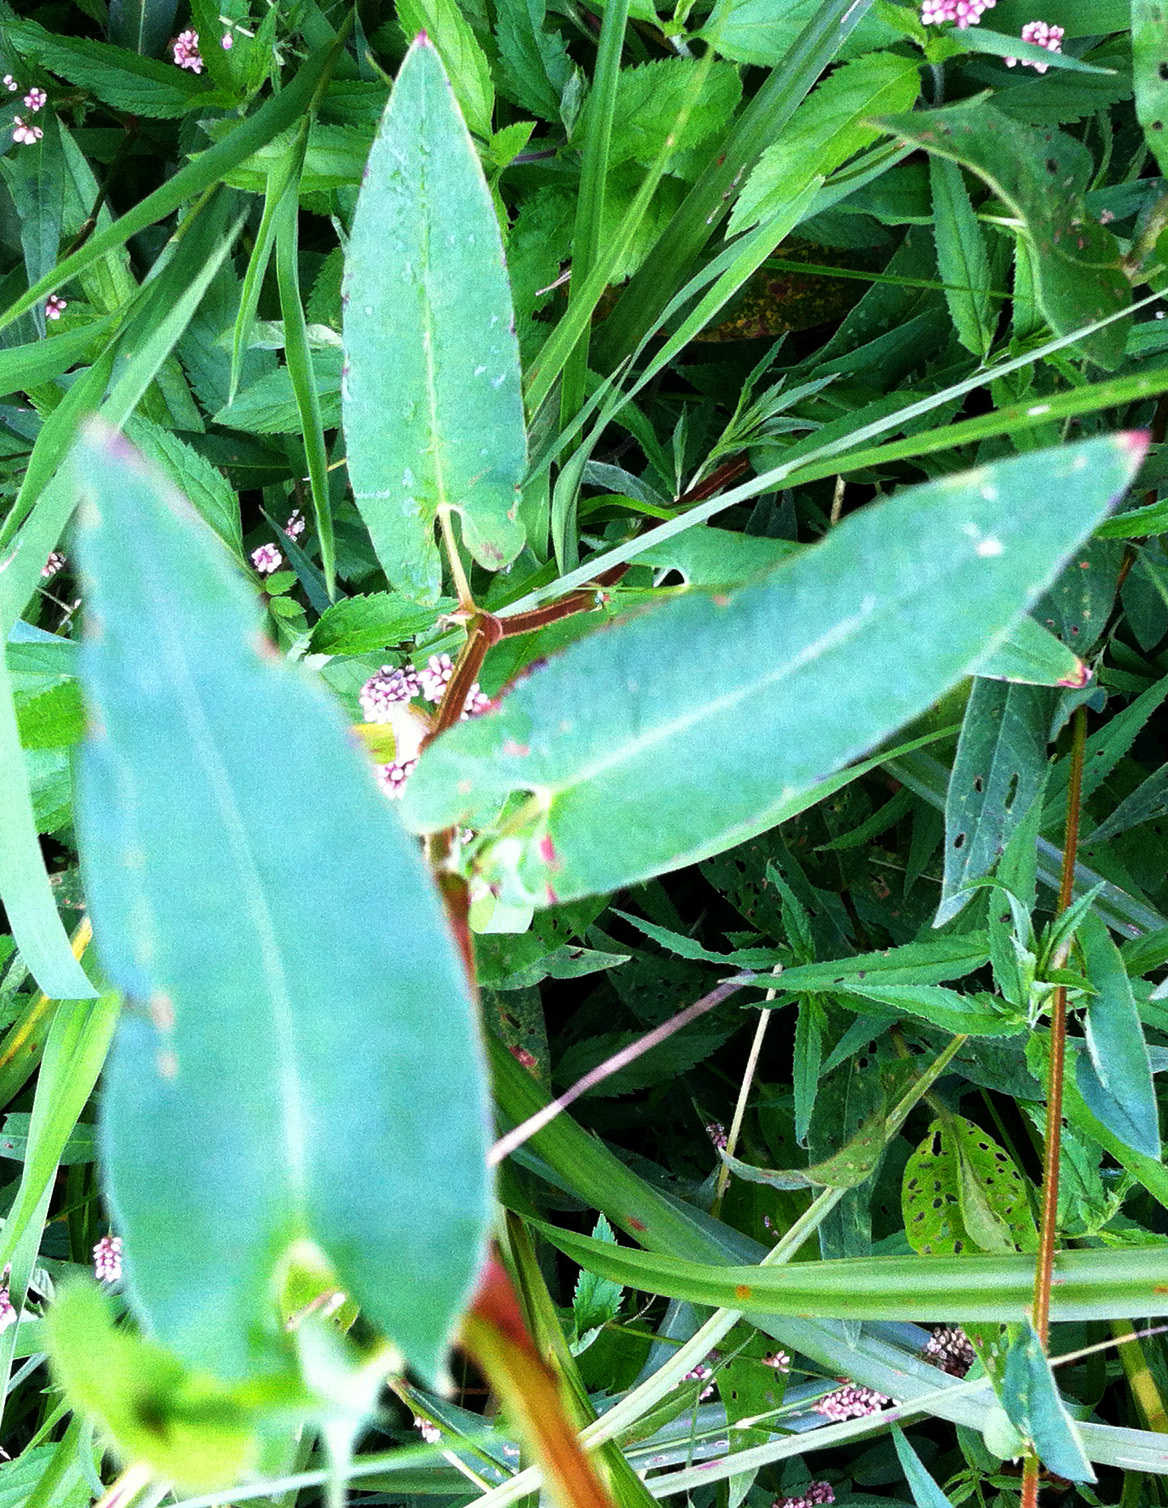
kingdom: Plantae
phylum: Tracheophyta
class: Magnoliopsida
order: Caryophyllales
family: Polygonaceae
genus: Persicaria
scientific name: Persicaria sagittata
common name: American tearthumb
